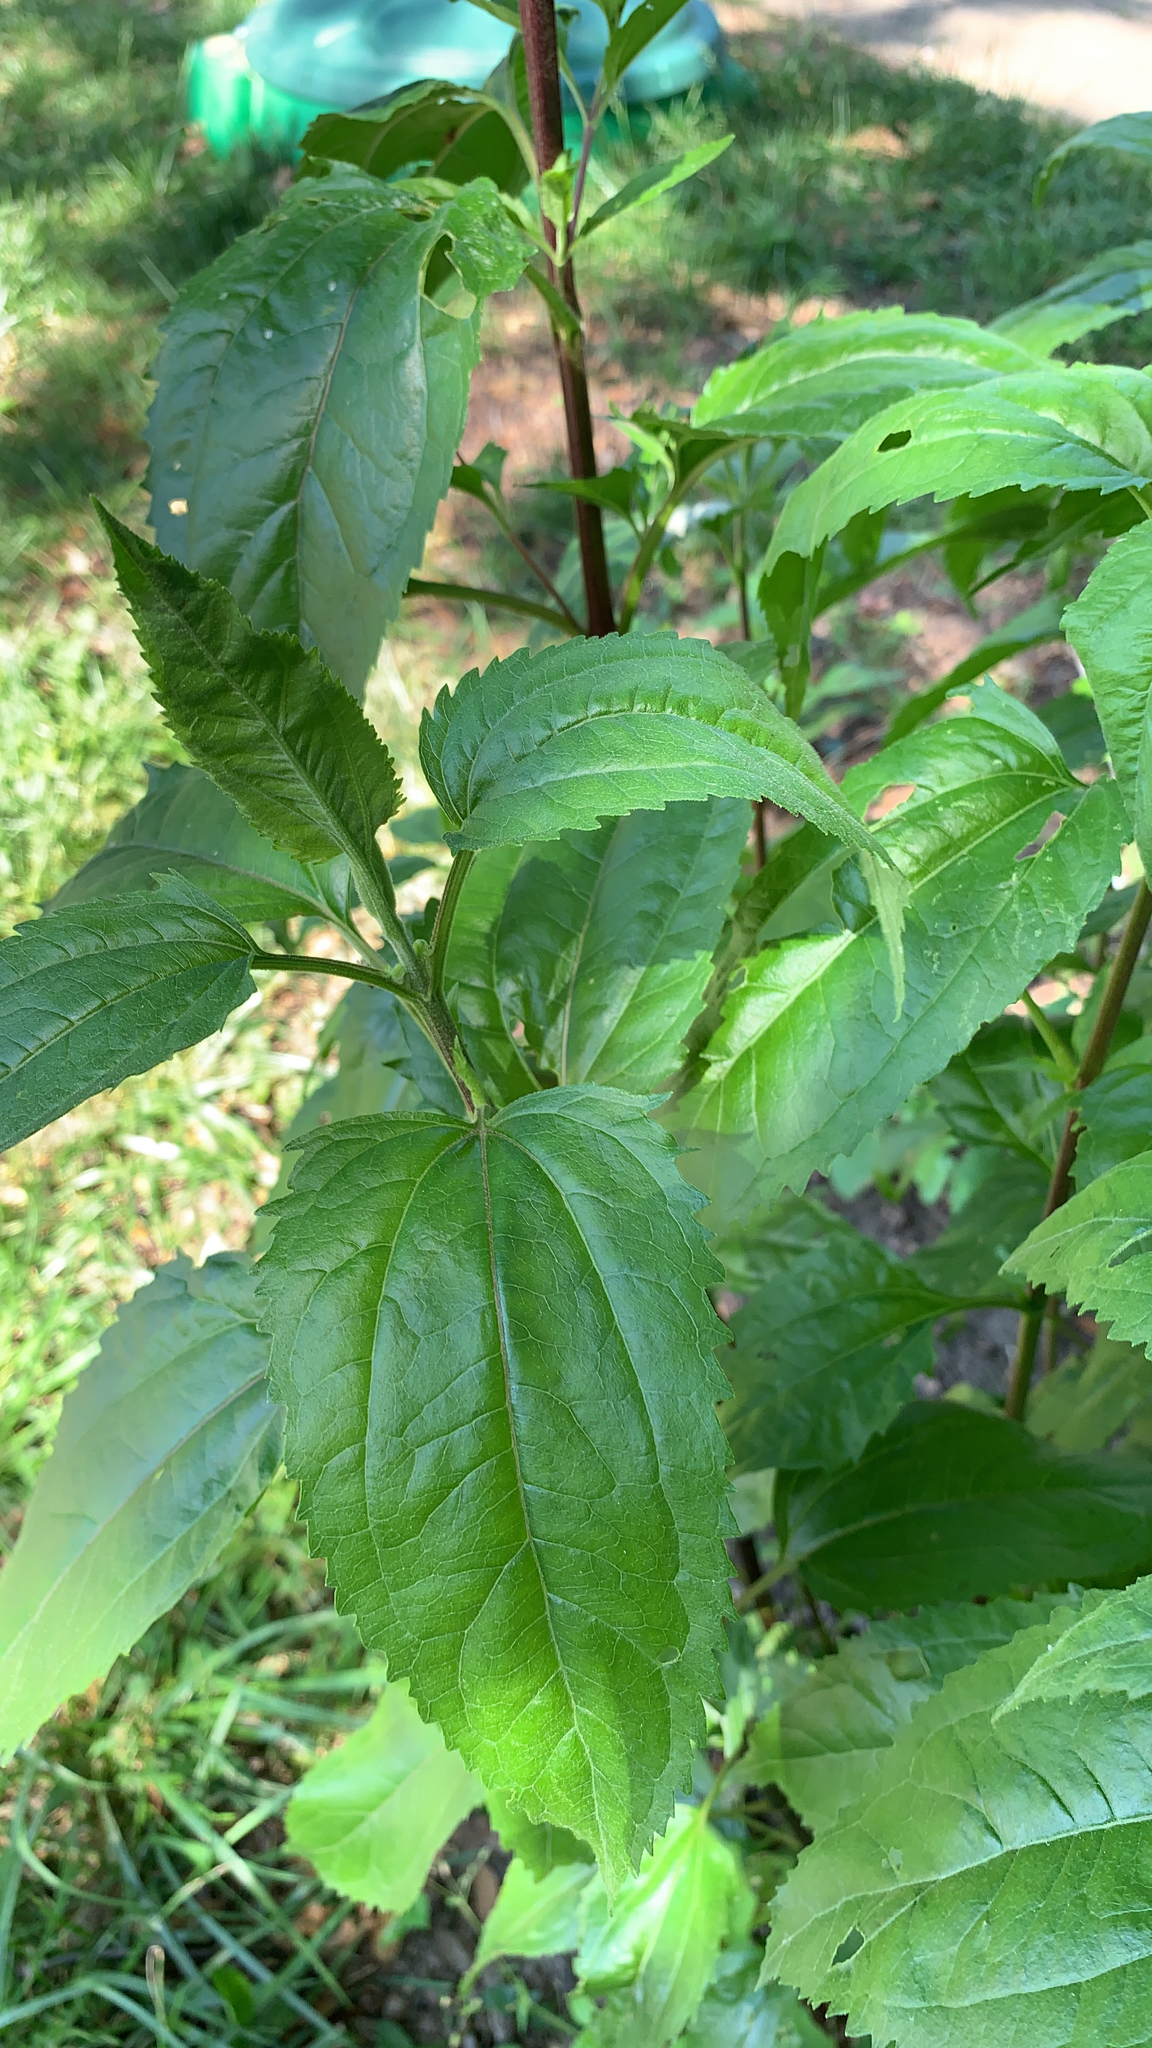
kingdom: Plantae
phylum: Tracheophyta
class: Magnoliopsida
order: Asterales
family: Asteraceae
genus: Eupatorium
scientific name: Eupatorium serotinum
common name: Late boneset
